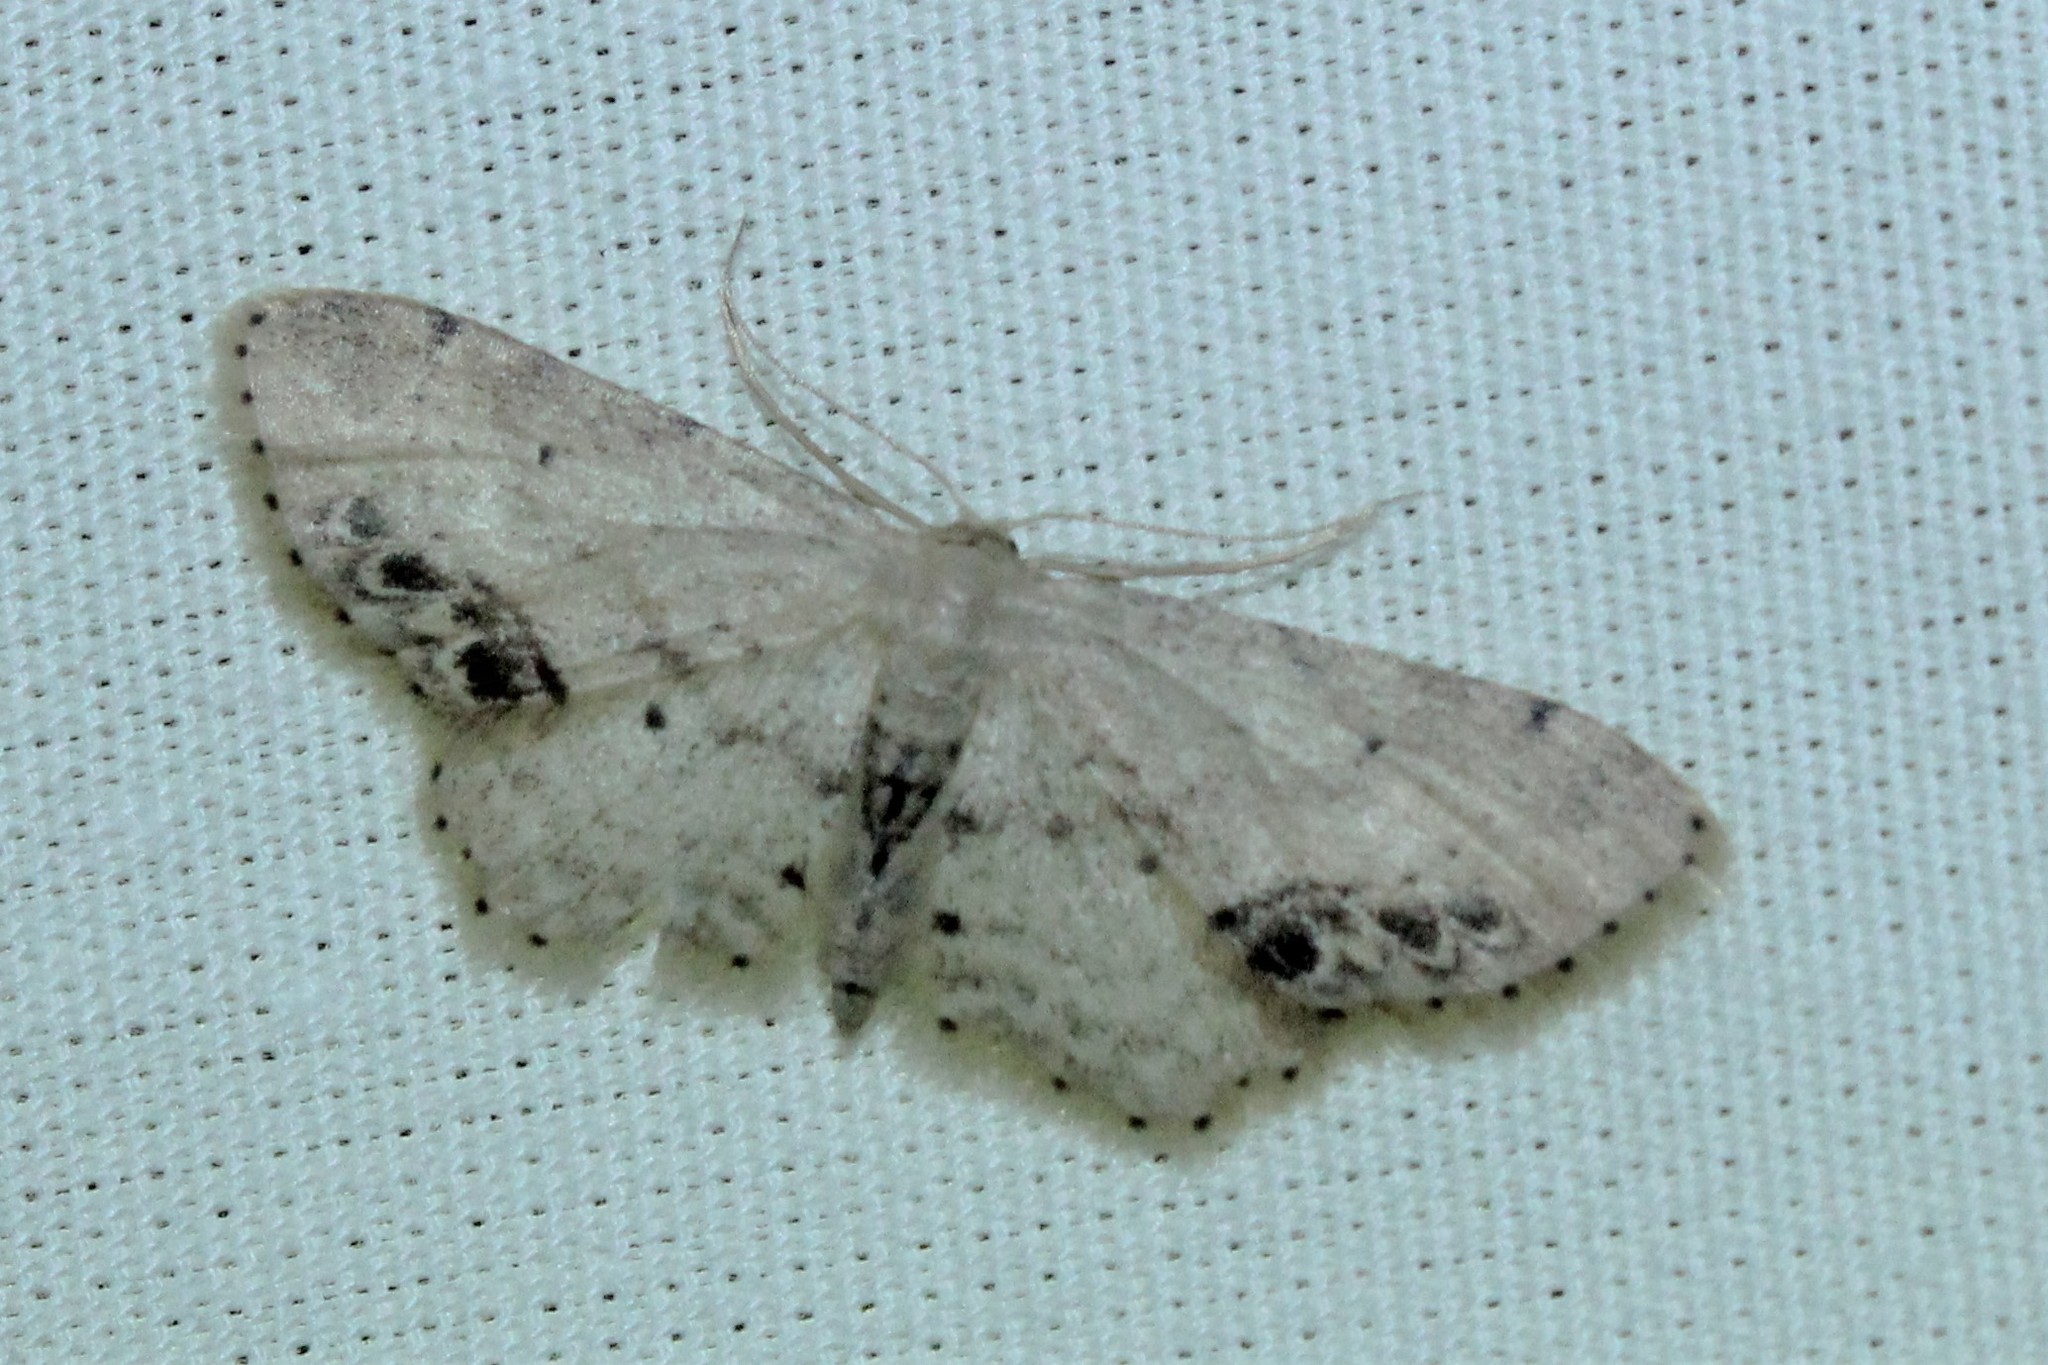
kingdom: Animalia
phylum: Arthropoda
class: Insecta
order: Lepidoptera
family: Geometridae
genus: Idaea
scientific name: Idaea dimidiata
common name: Single-dotted wave
